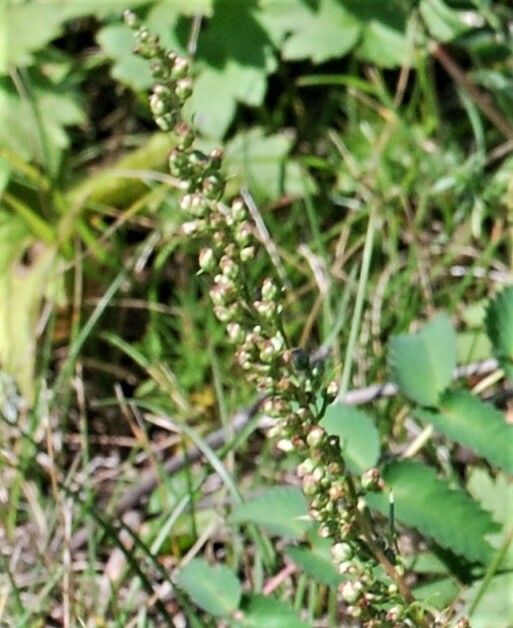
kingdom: Plantae
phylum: Tracheophyta
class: Magnoliopsida
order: Asterales
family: Asteraceae
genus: Artemisia
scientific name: Artemisia pubescens
